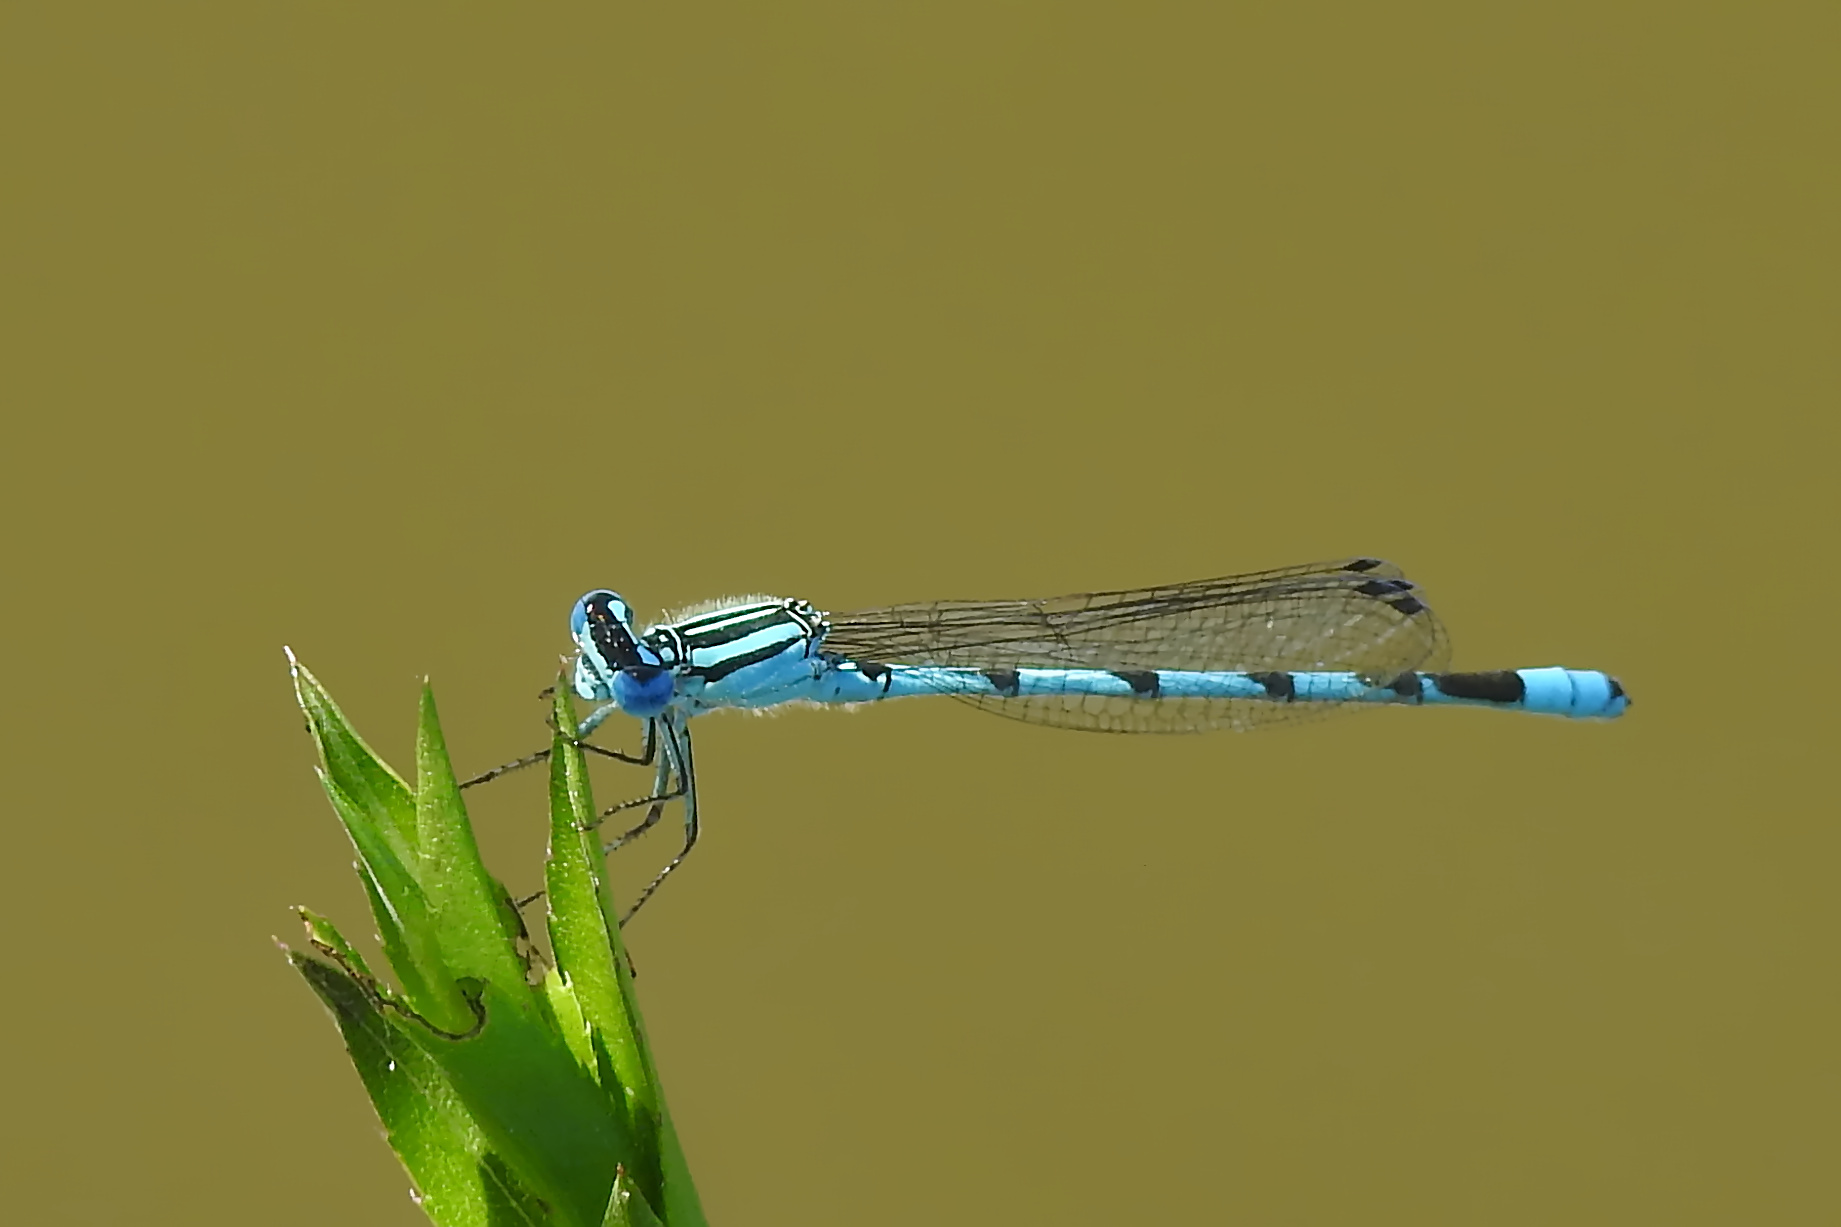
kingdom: Animalia
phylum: Arthropoda
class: Insecta
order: Odonata
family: Coenagrionidae
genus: Enallagma
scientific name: Enallagma durum
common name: Big bluet
